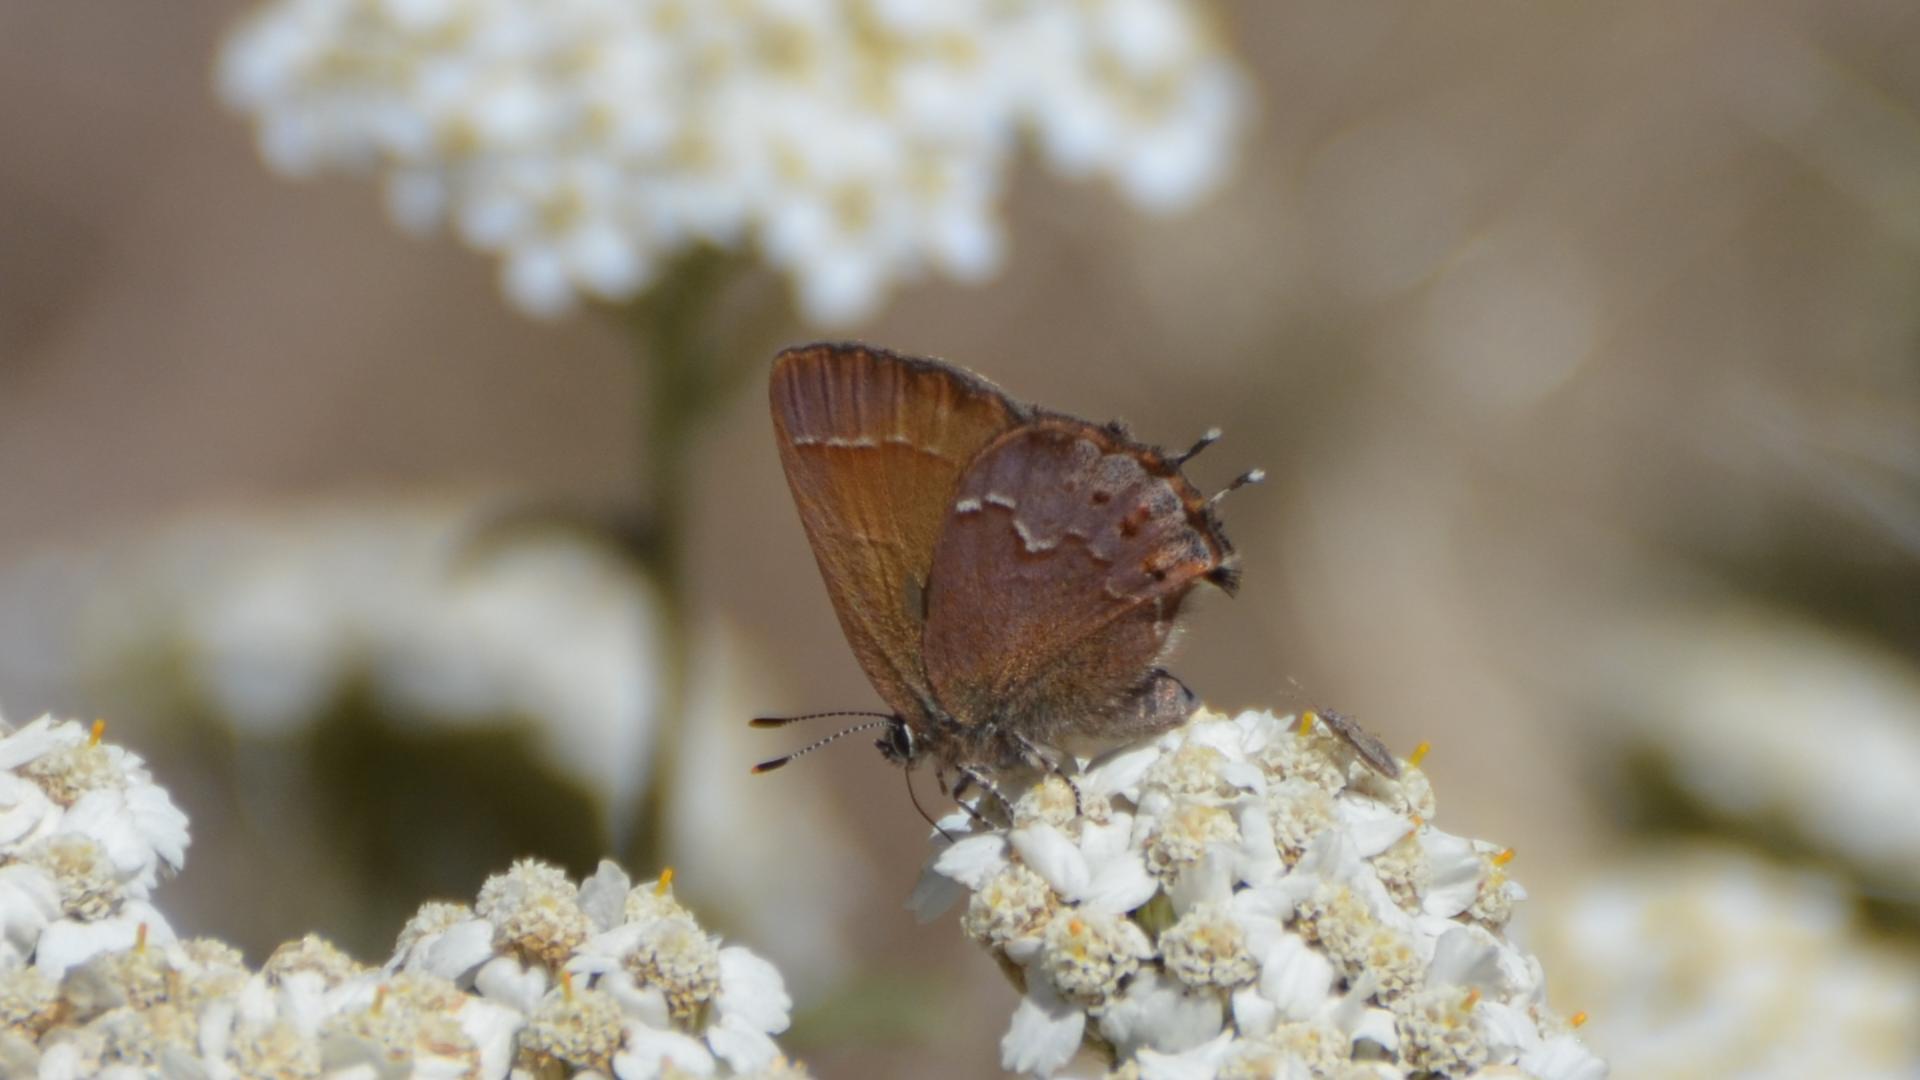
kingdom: Animalia
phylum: Arthropoda
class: Insecta
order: Lepidoptera
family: Lycaenidae
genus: Mitoura
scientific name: Mitoura gryneus
